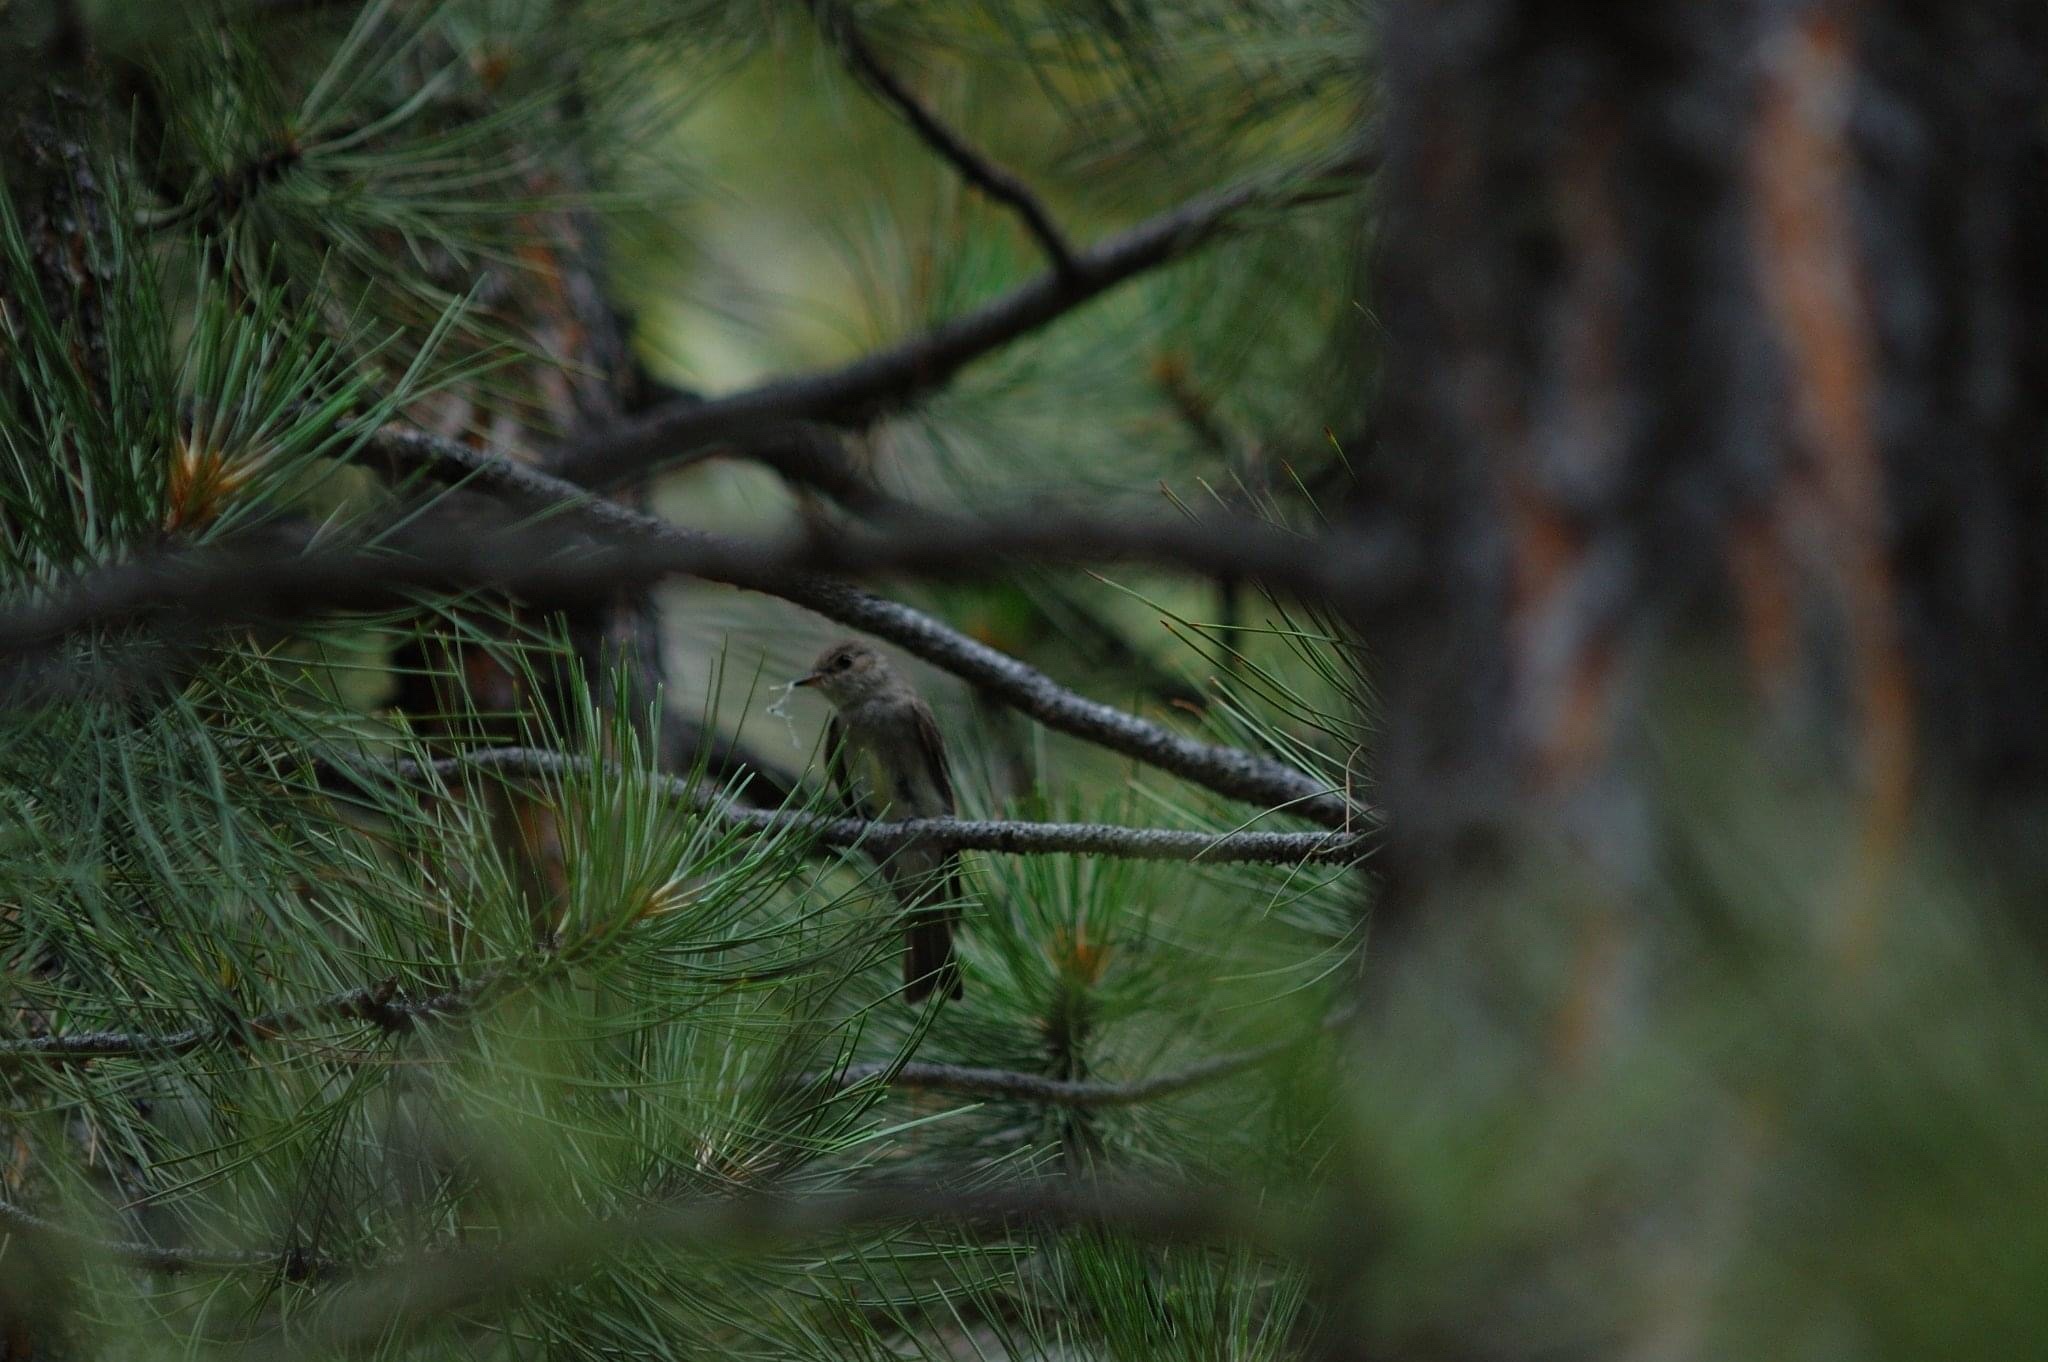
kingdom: Animalia
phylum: Chordata
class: Aves
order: Passeriformes
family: Tyrannidae
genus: Contopus
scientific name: Contopus sordidulus
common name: Western wood-pewee
